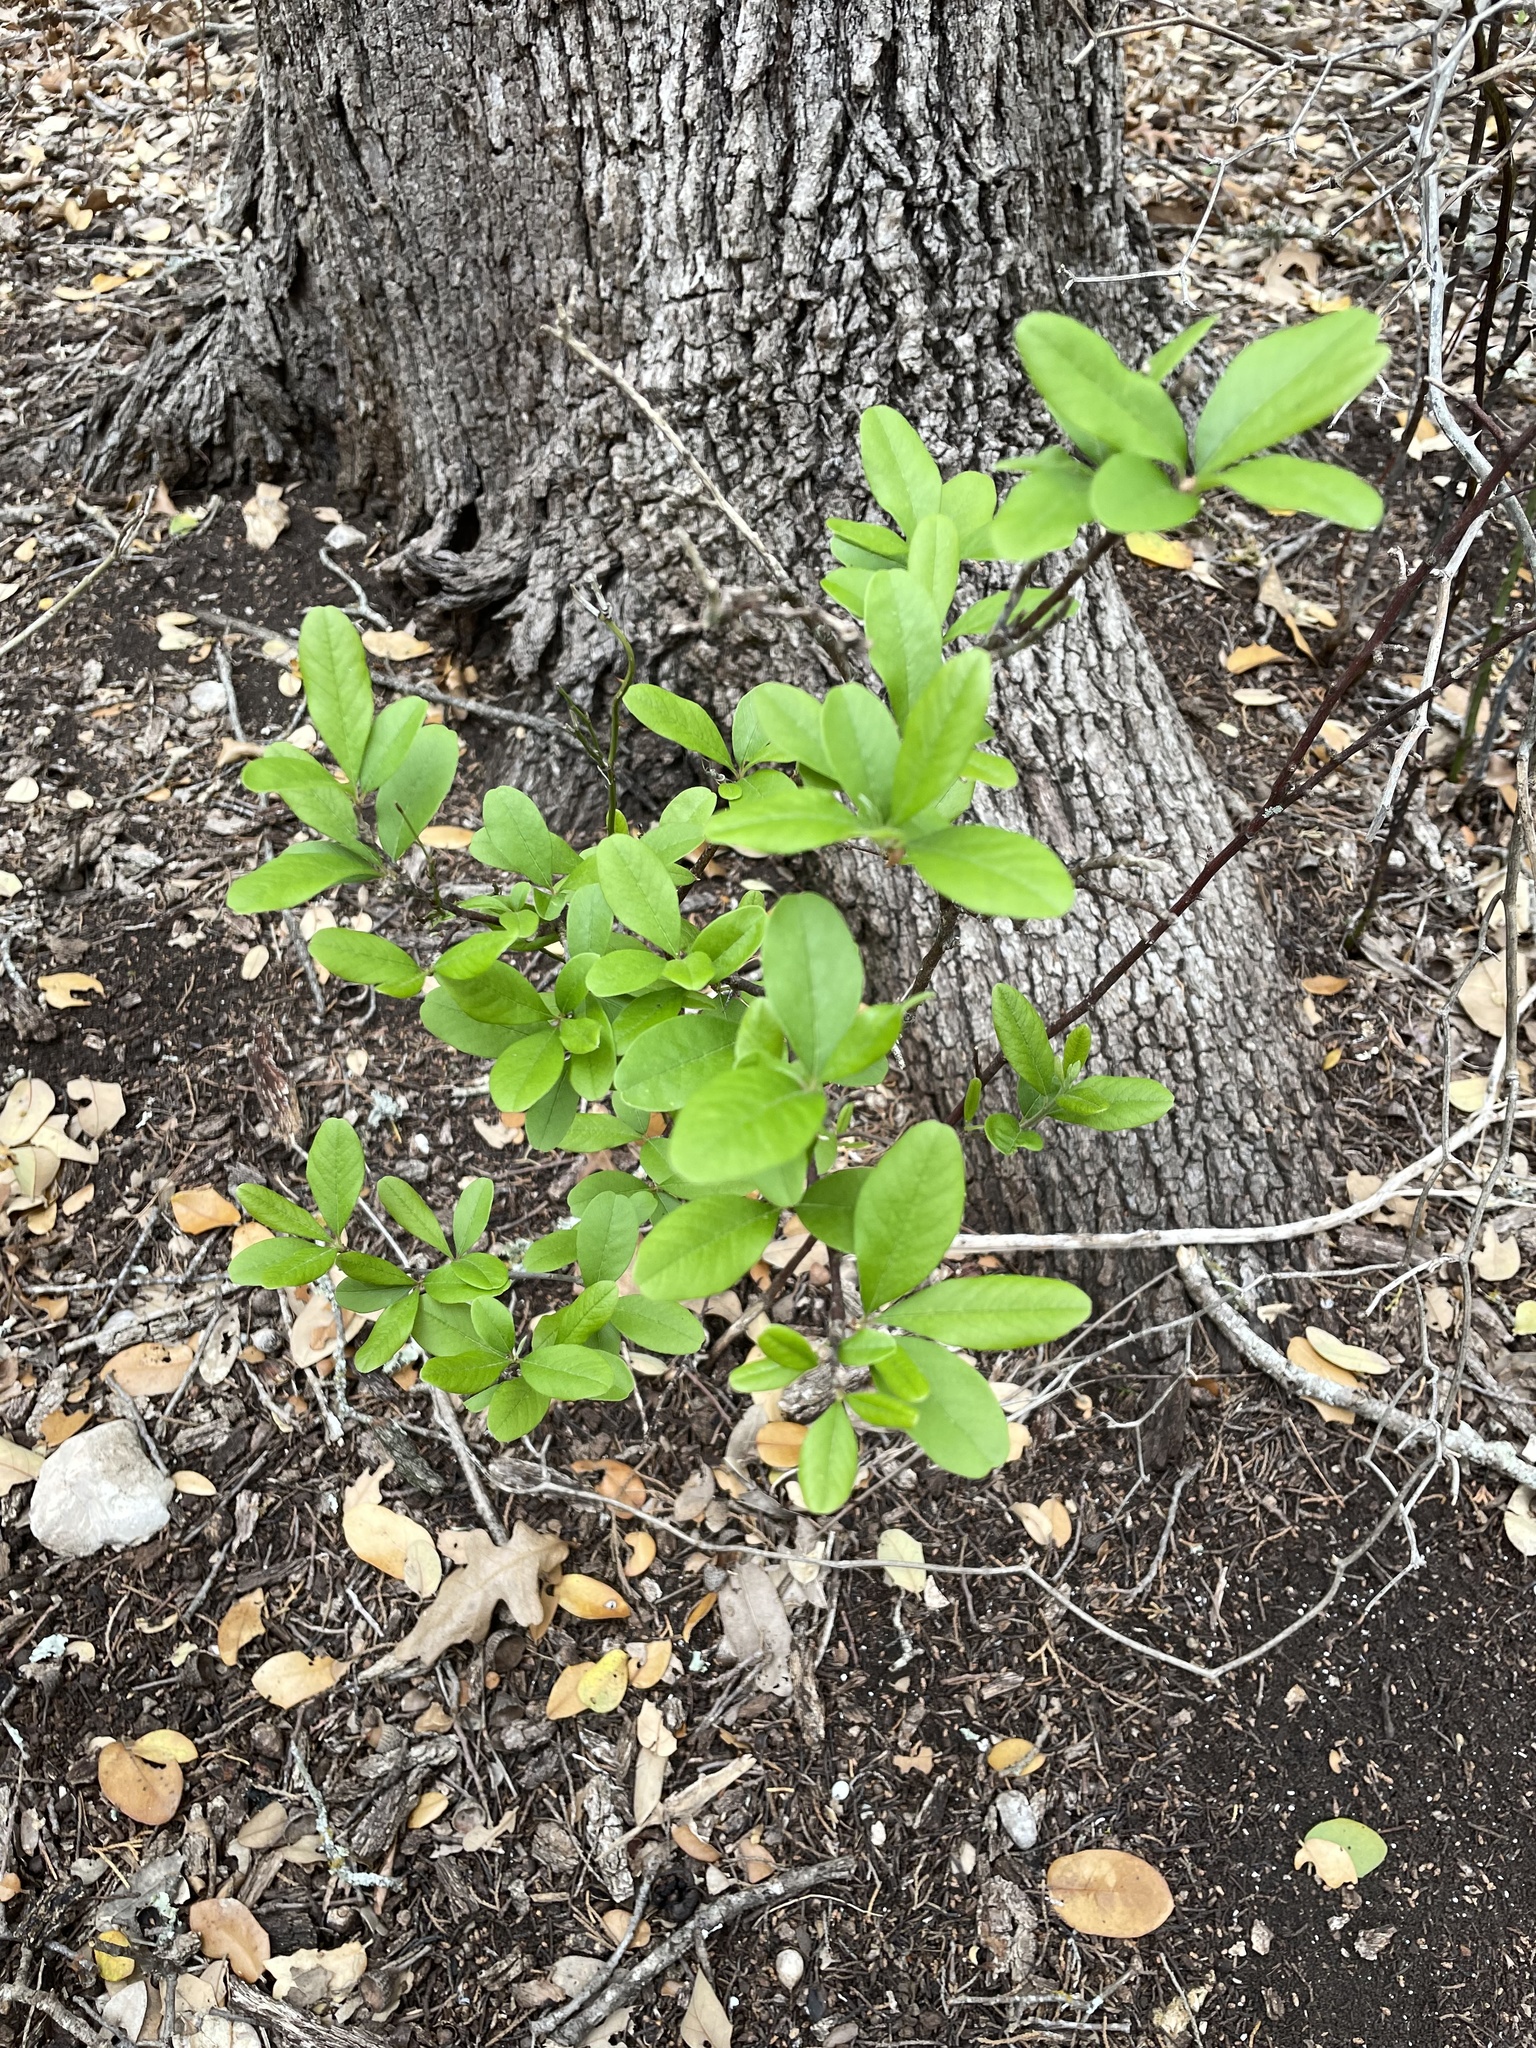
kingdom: Plantae
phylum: Tracheophyta
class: Magnoliopsida
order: Ericales
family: Sapotaceae
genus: Sideroxylon
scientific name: Sideroxylon lanuginosum
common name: Chittamwood
